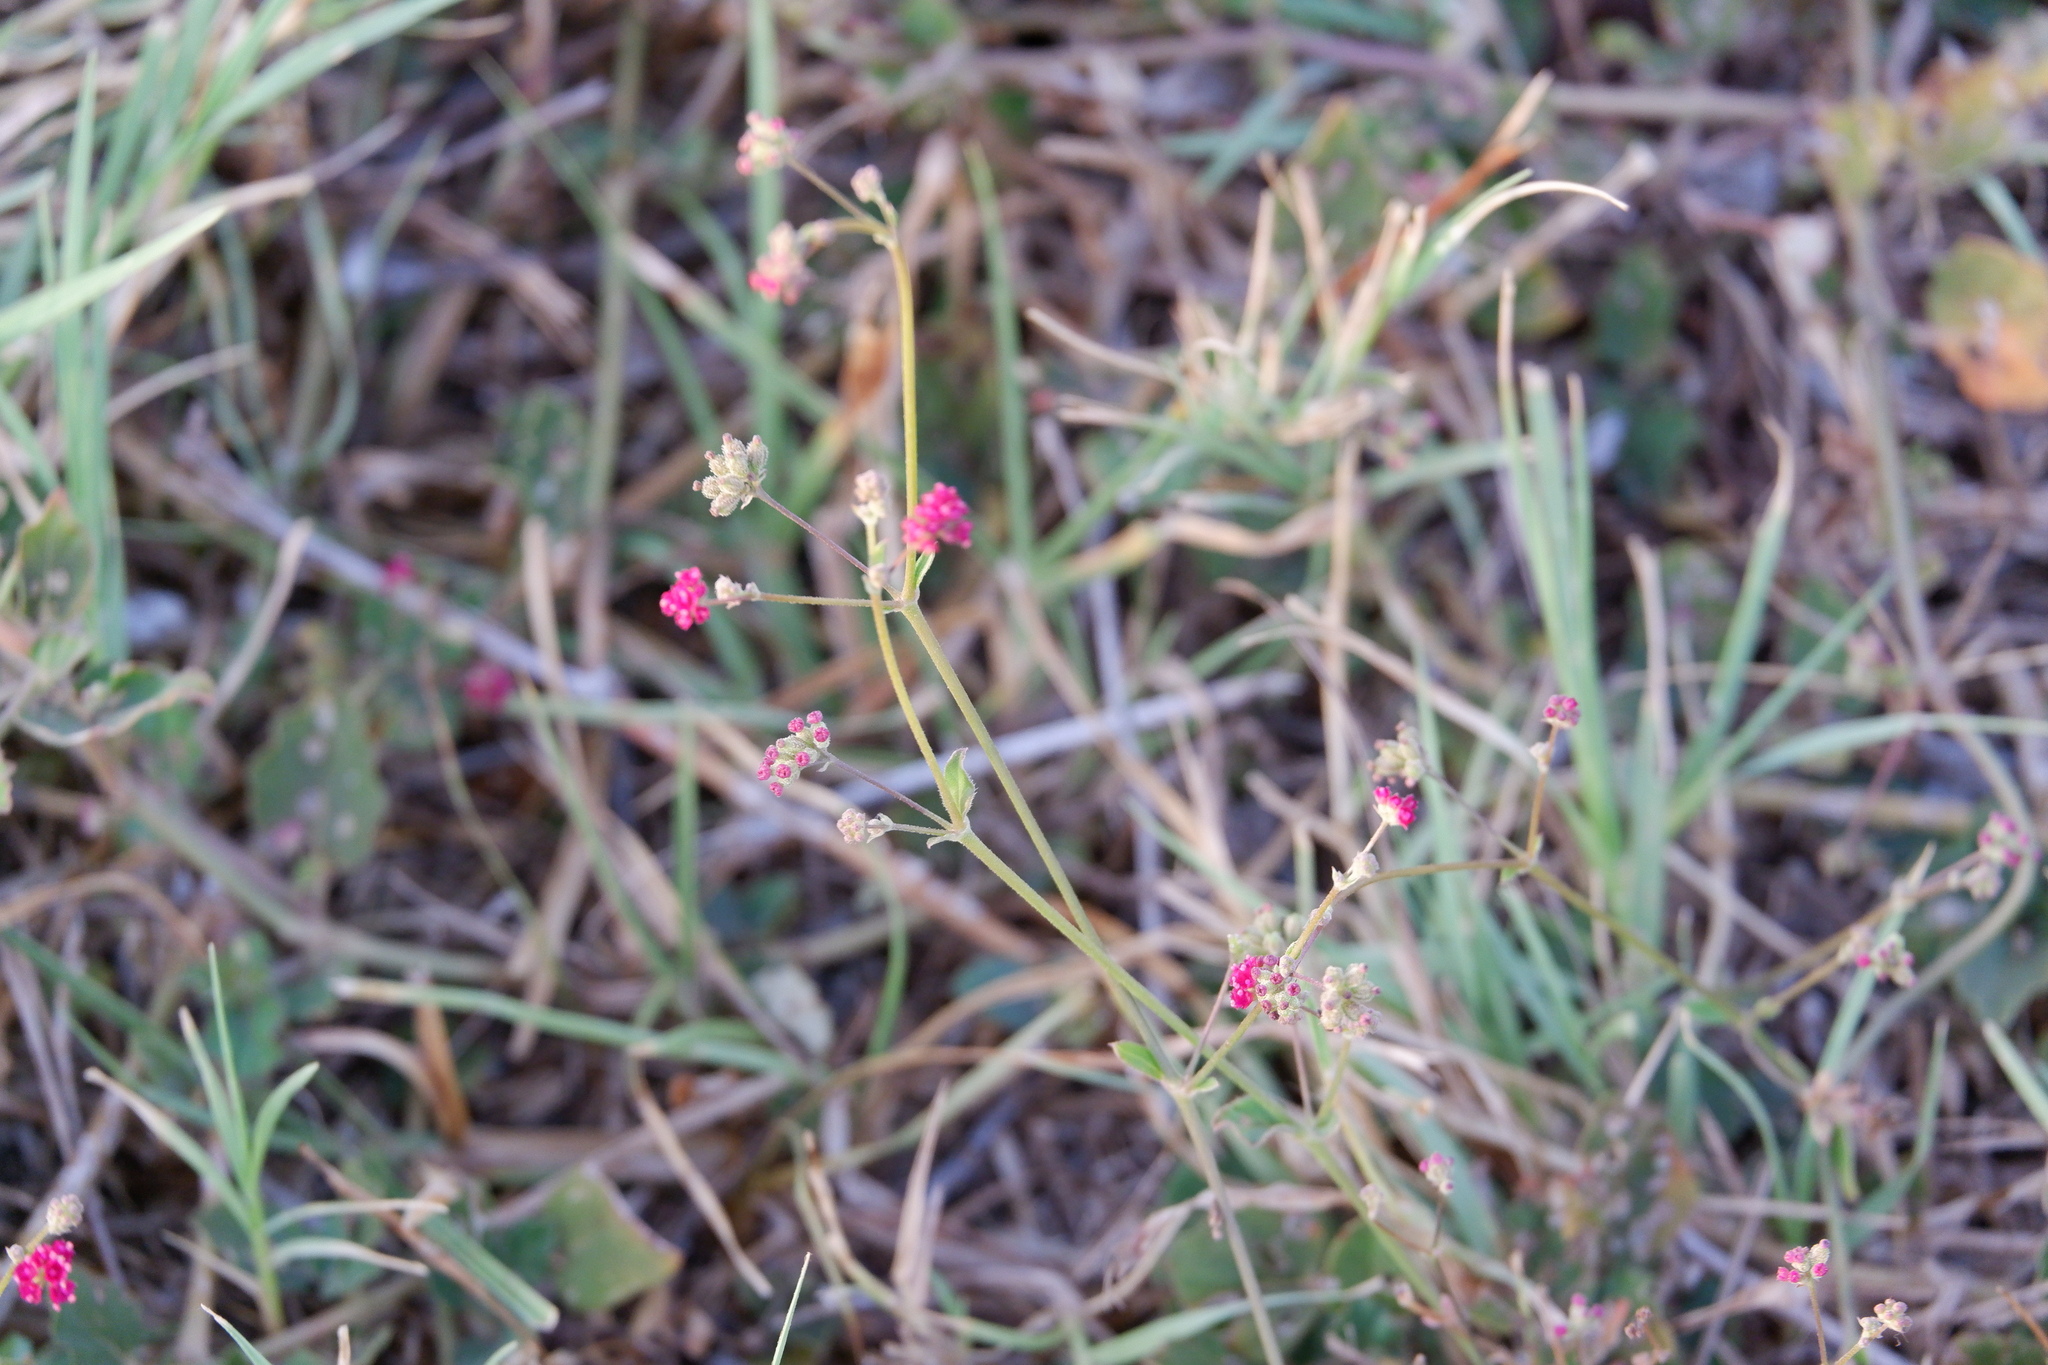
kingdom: Plantae
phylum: Tracheophyta
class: Magnoliopsida
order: Caryophyllales
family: Nyctaginaceae
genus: Boerhavia
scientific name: Boerhavia coccinea
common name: Scarlet spiderling
